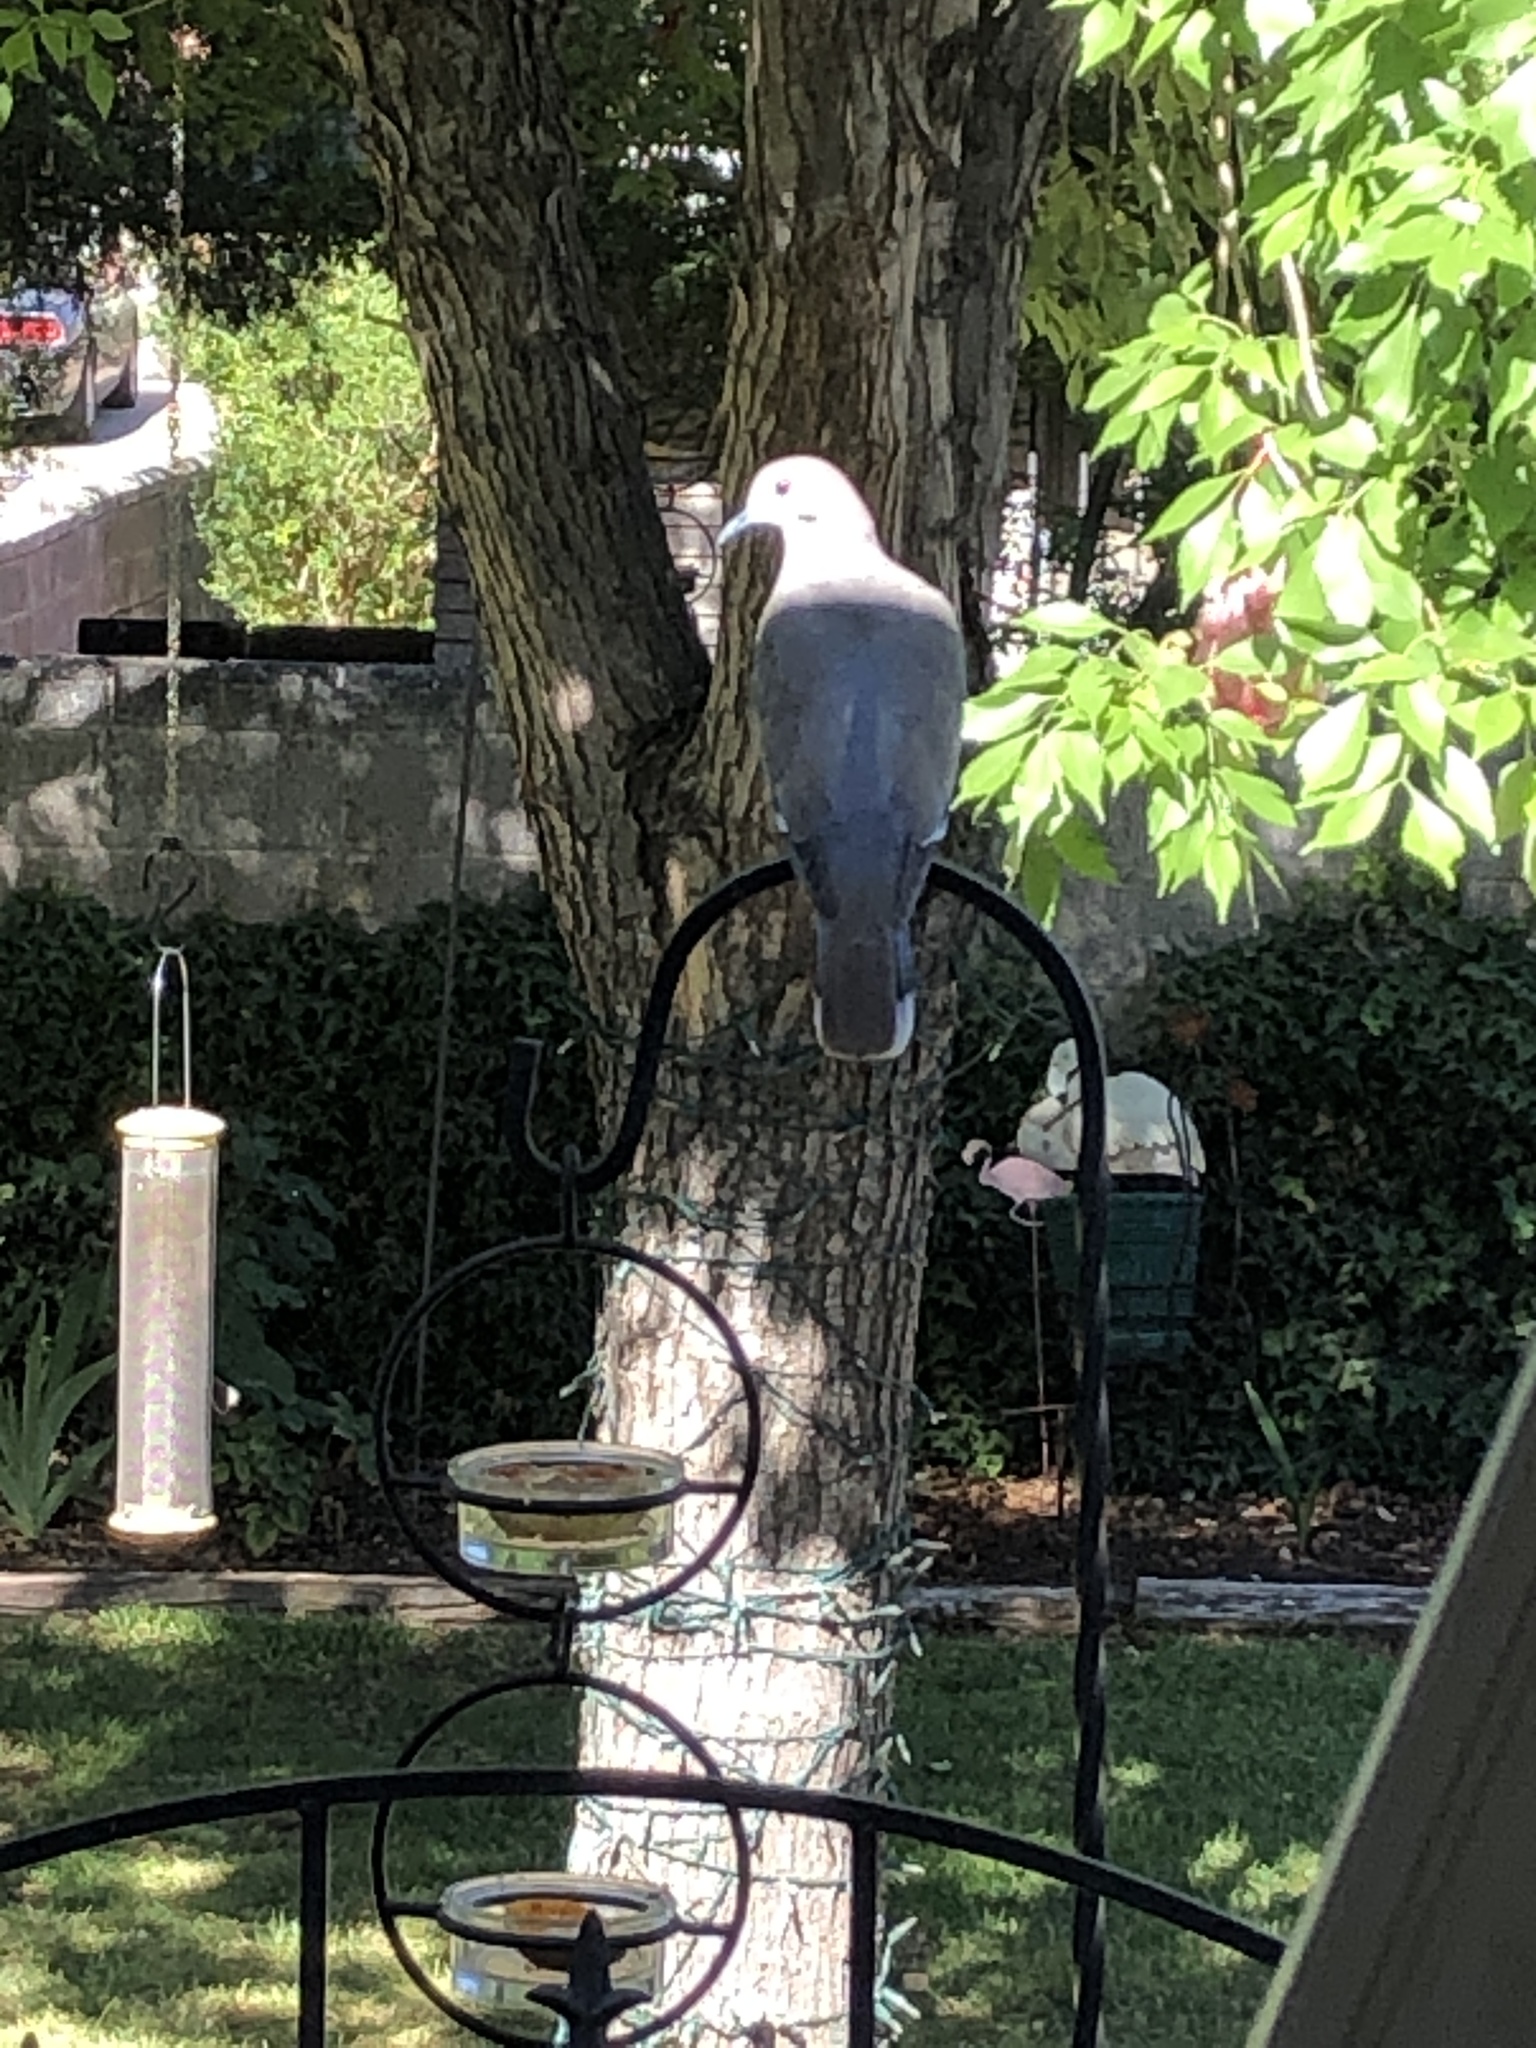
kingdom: Animalia
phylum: Chordata
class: Aves
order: Columbiformes
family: Columbidae
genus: Zenaida
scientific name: Zenaida asiatica
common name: White-winged dove
